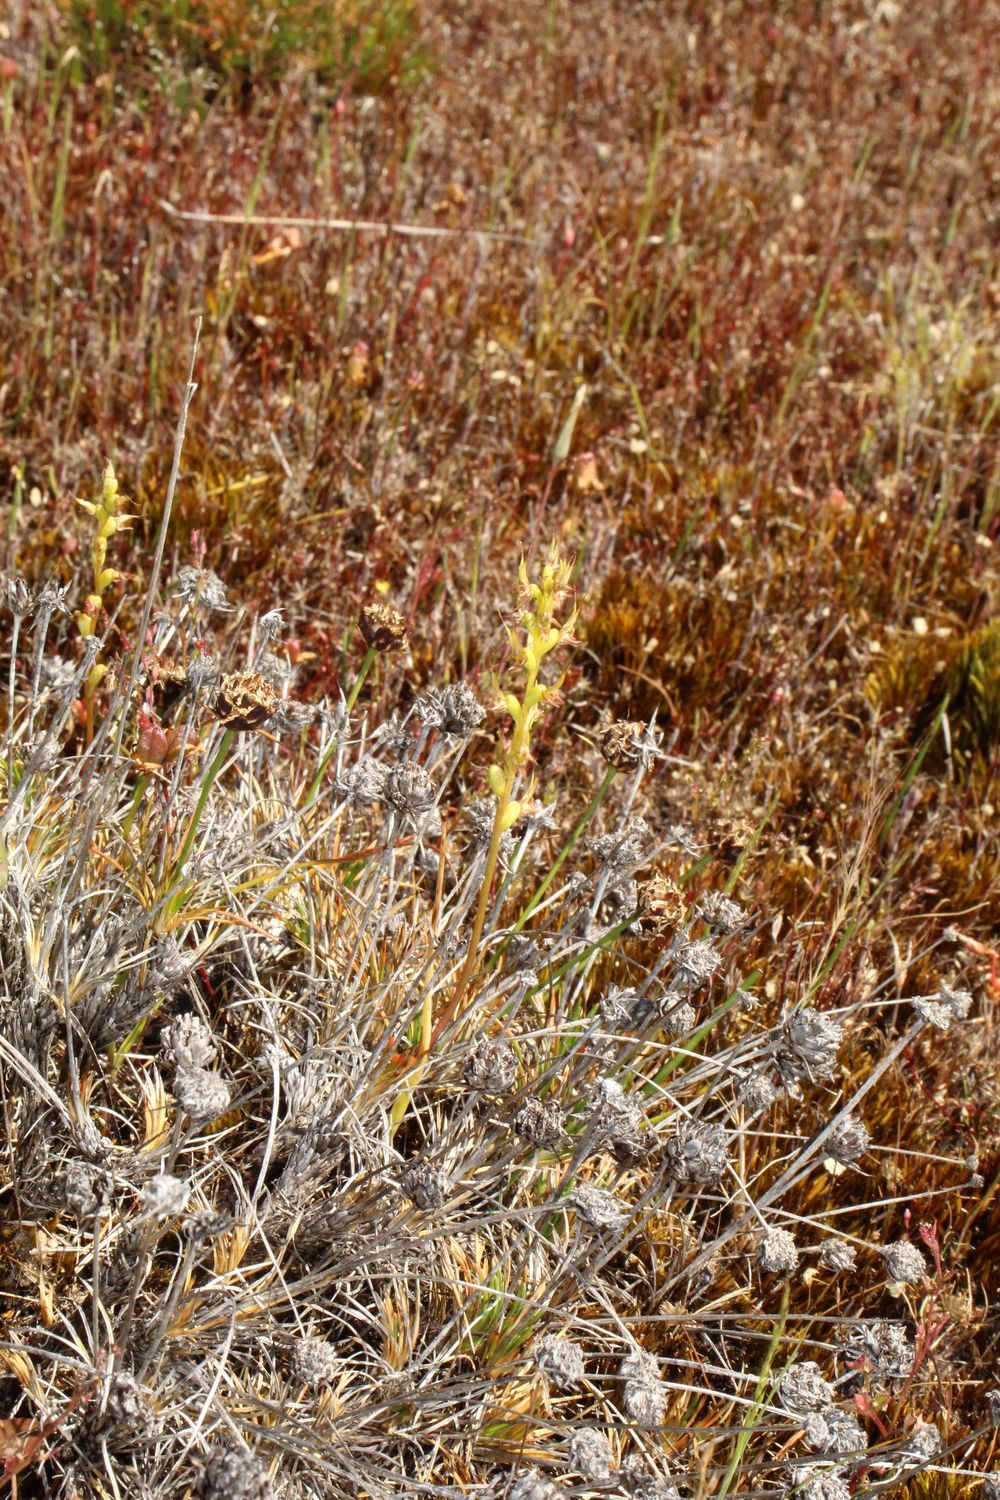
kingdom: Plantae
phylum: Tracheophyta
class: Liliopsida
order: Asparagales
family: Orchidaceae
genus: Prasophyllum
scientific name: Prasophyllum gracile
